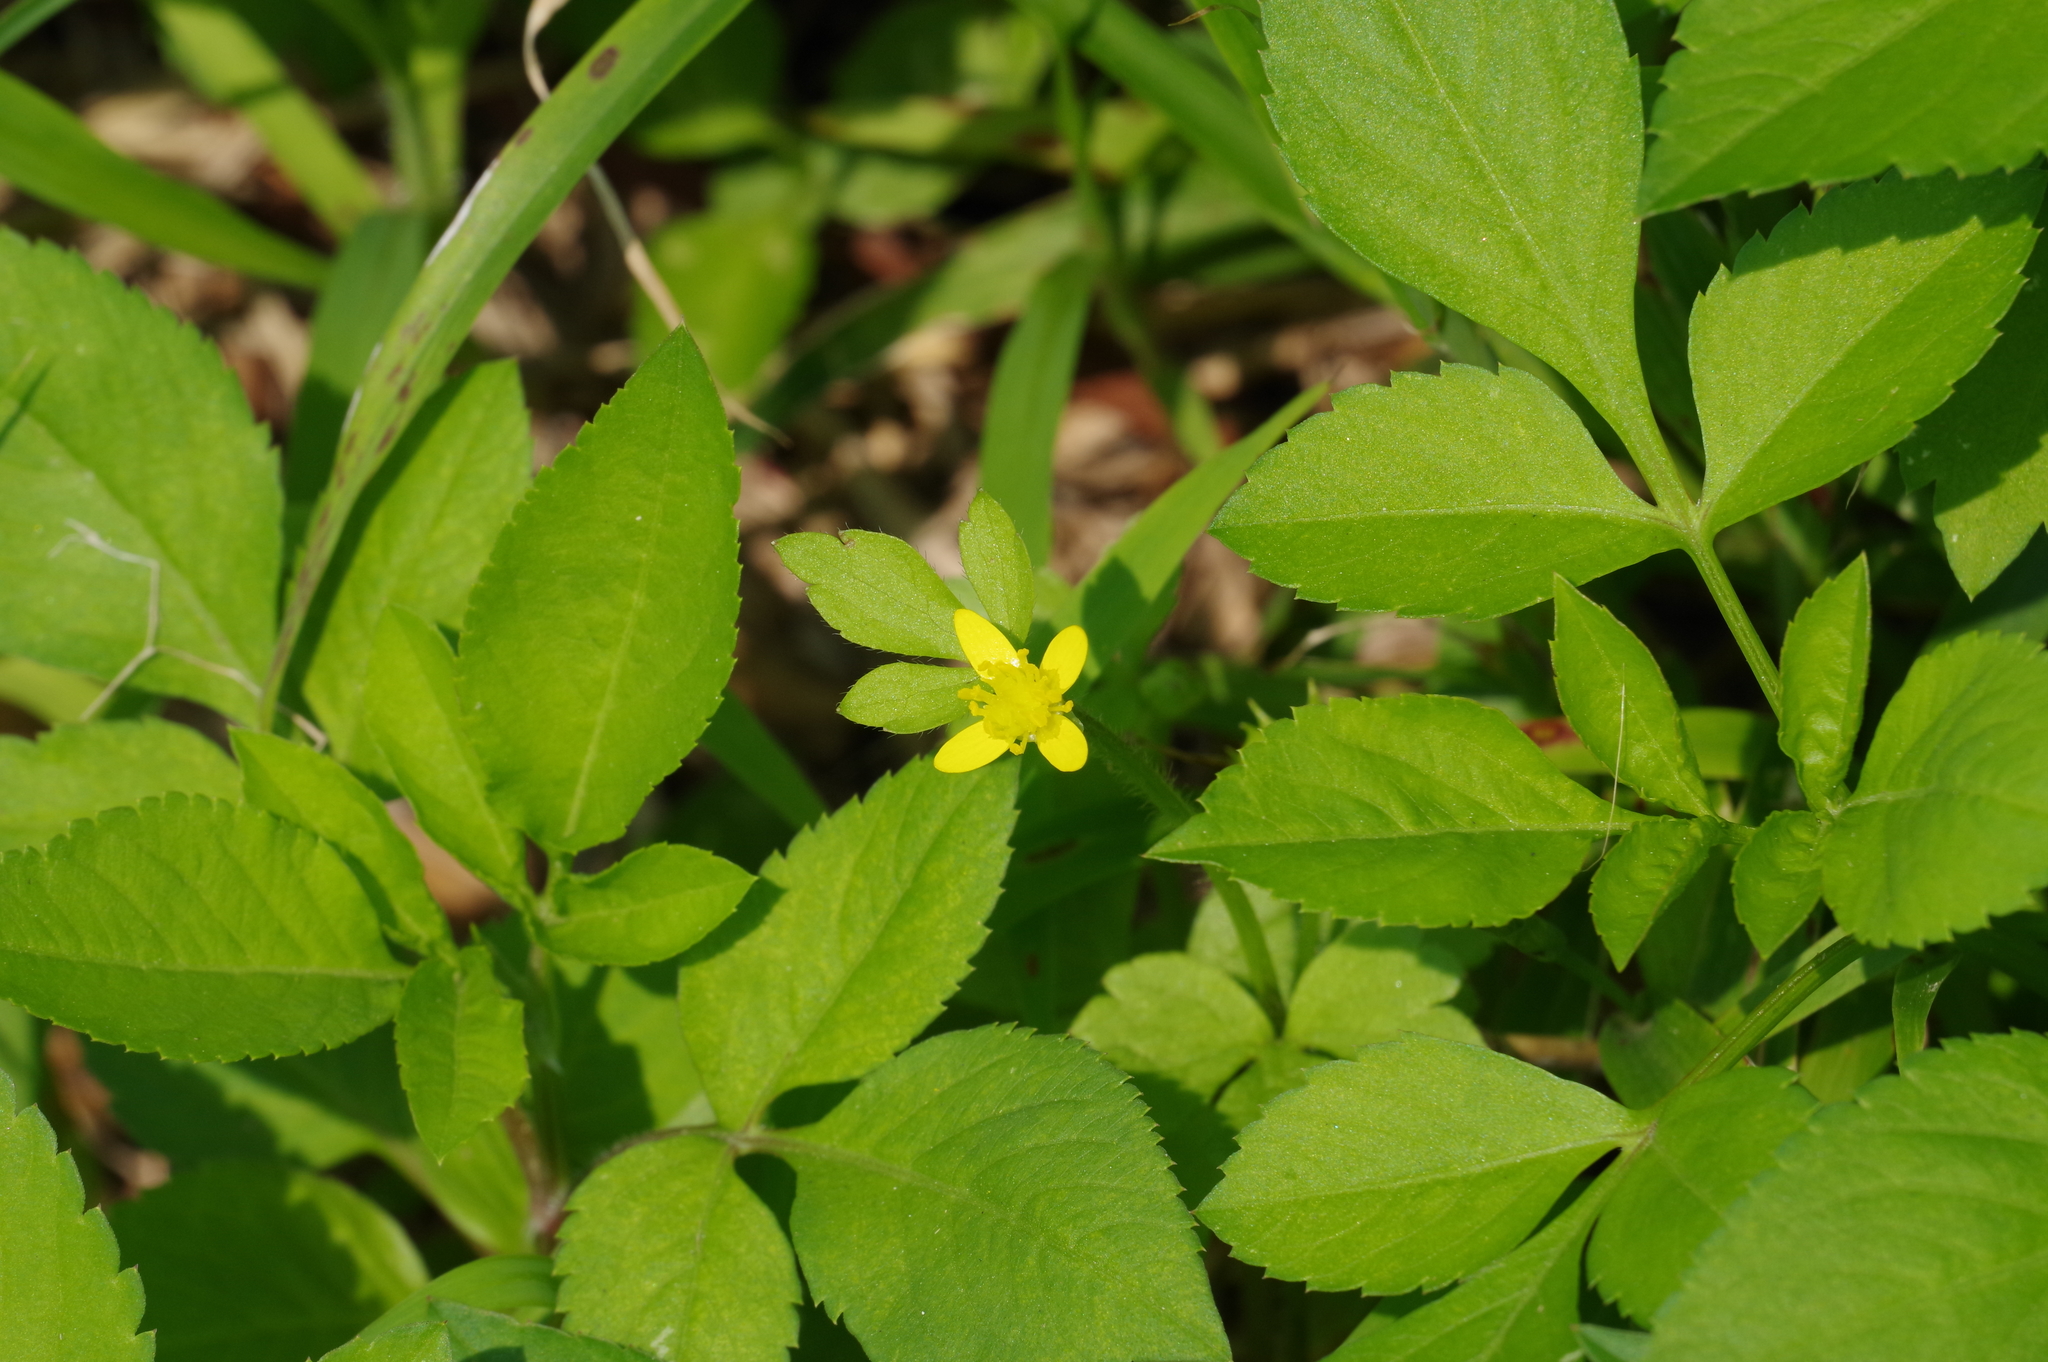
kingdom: Plantae
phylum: Tracheophyta
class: Magnoliopsida
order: Ranunculales
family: Ranunculaceae
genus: Ranunculus
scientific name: Ranunculus sieboldii
